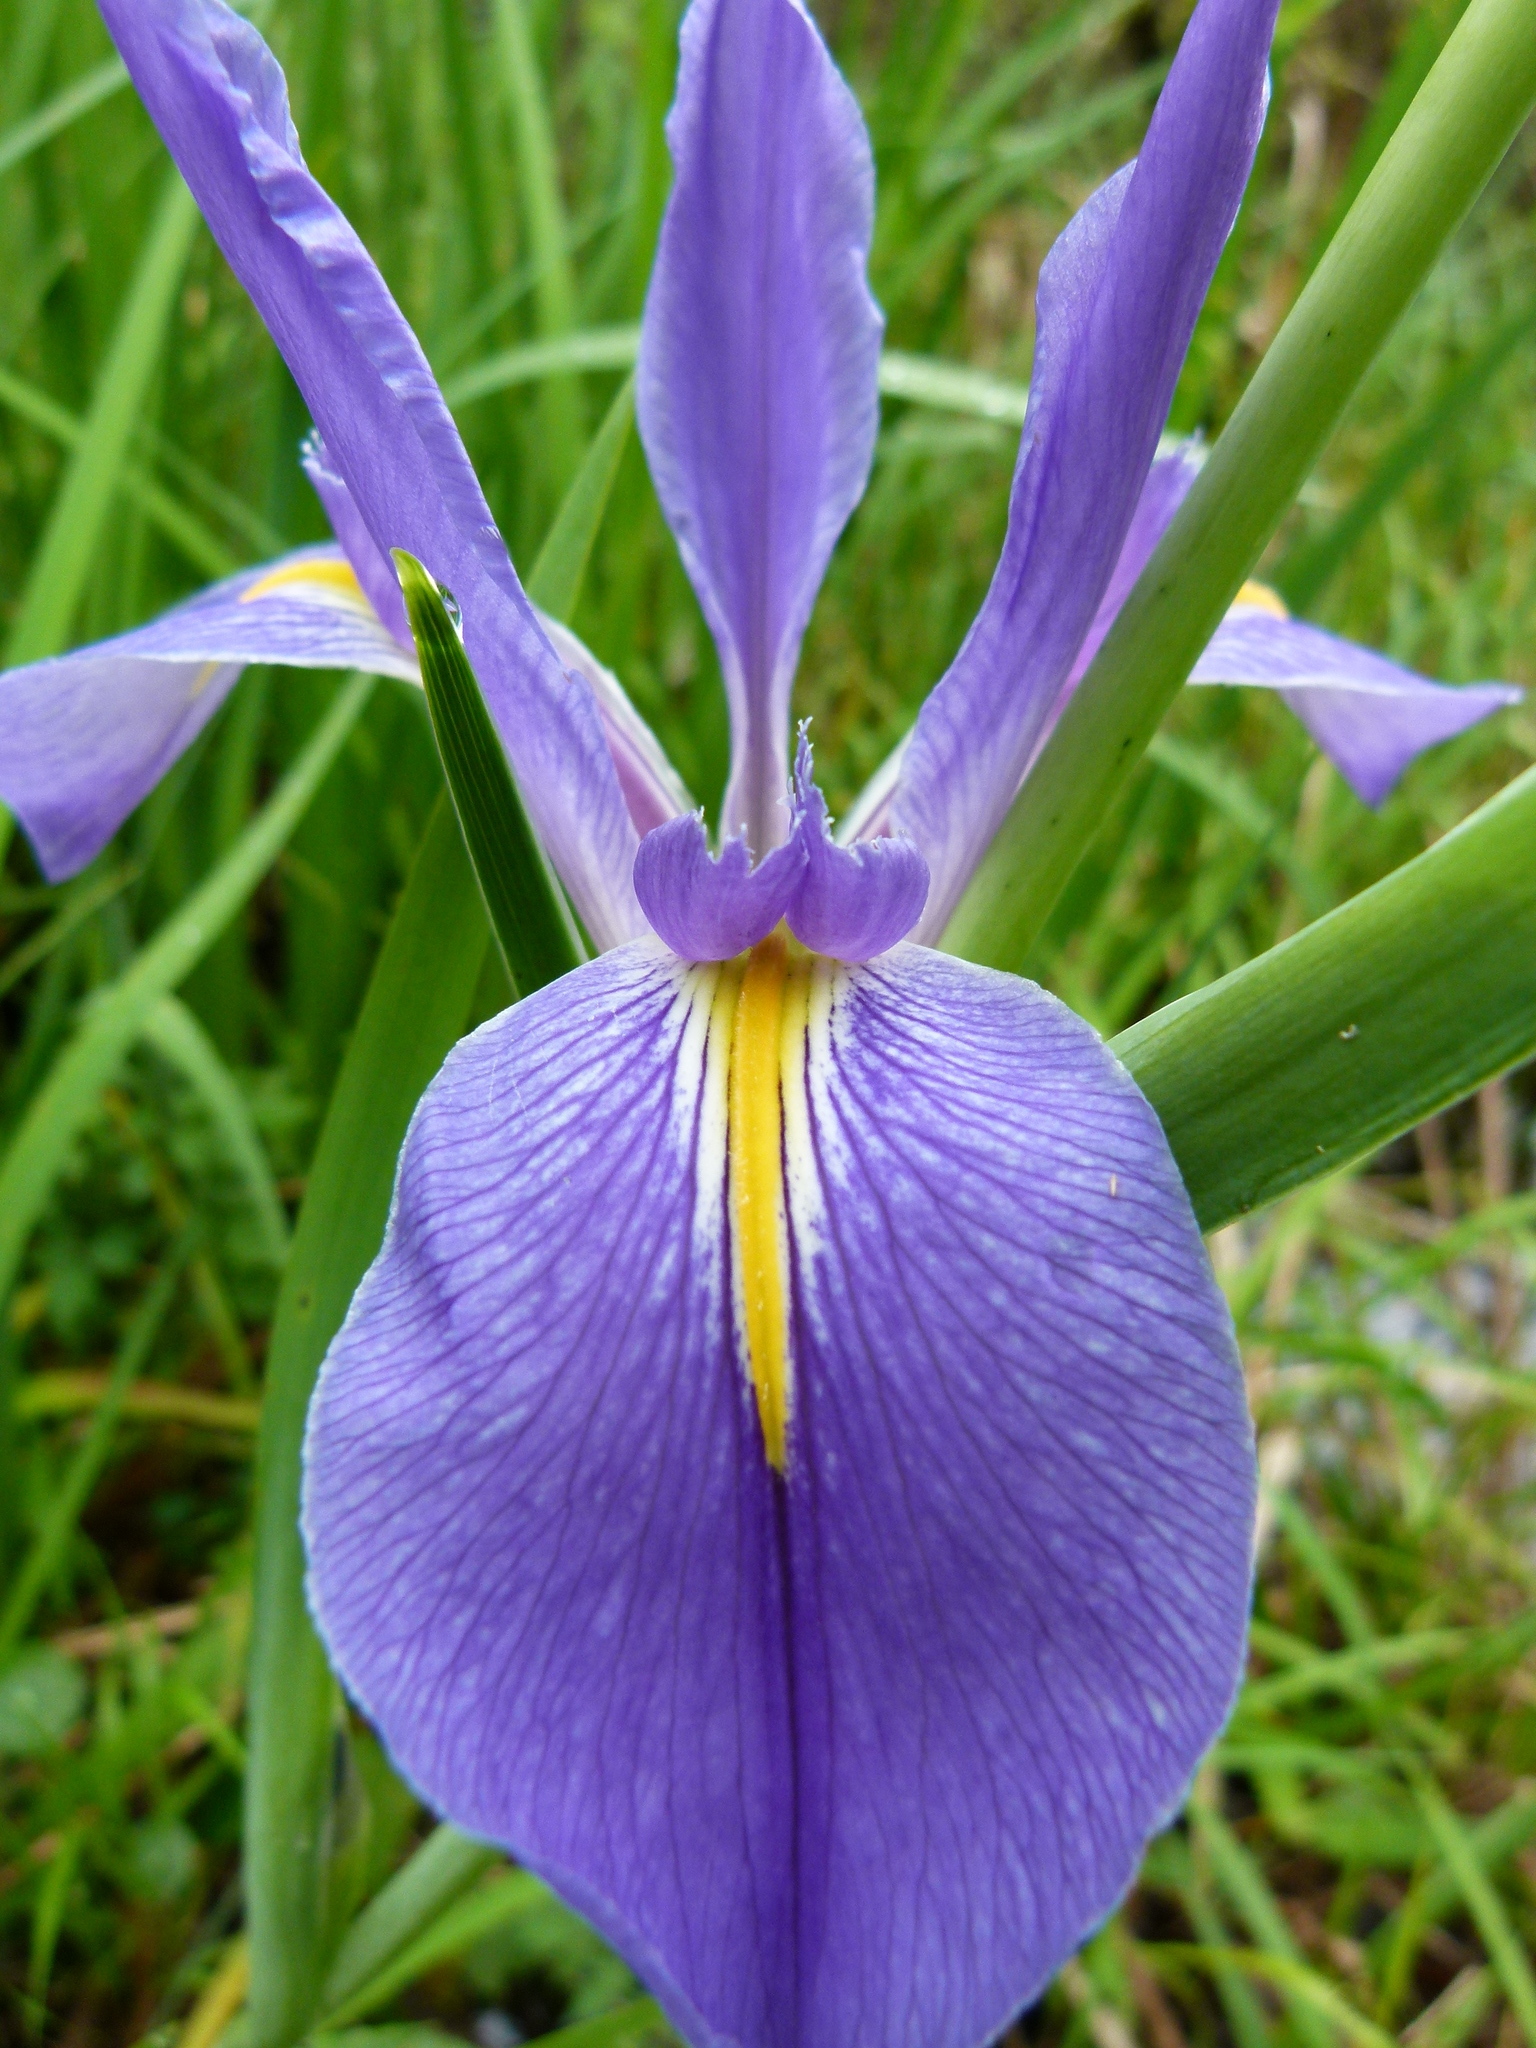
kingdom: Plantae
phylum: Tracheophyta
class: Liliopsida
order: Asparagales
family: Iridaceae
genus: Iris
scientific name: Iris giganticaerulea
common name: Giant blue iris
